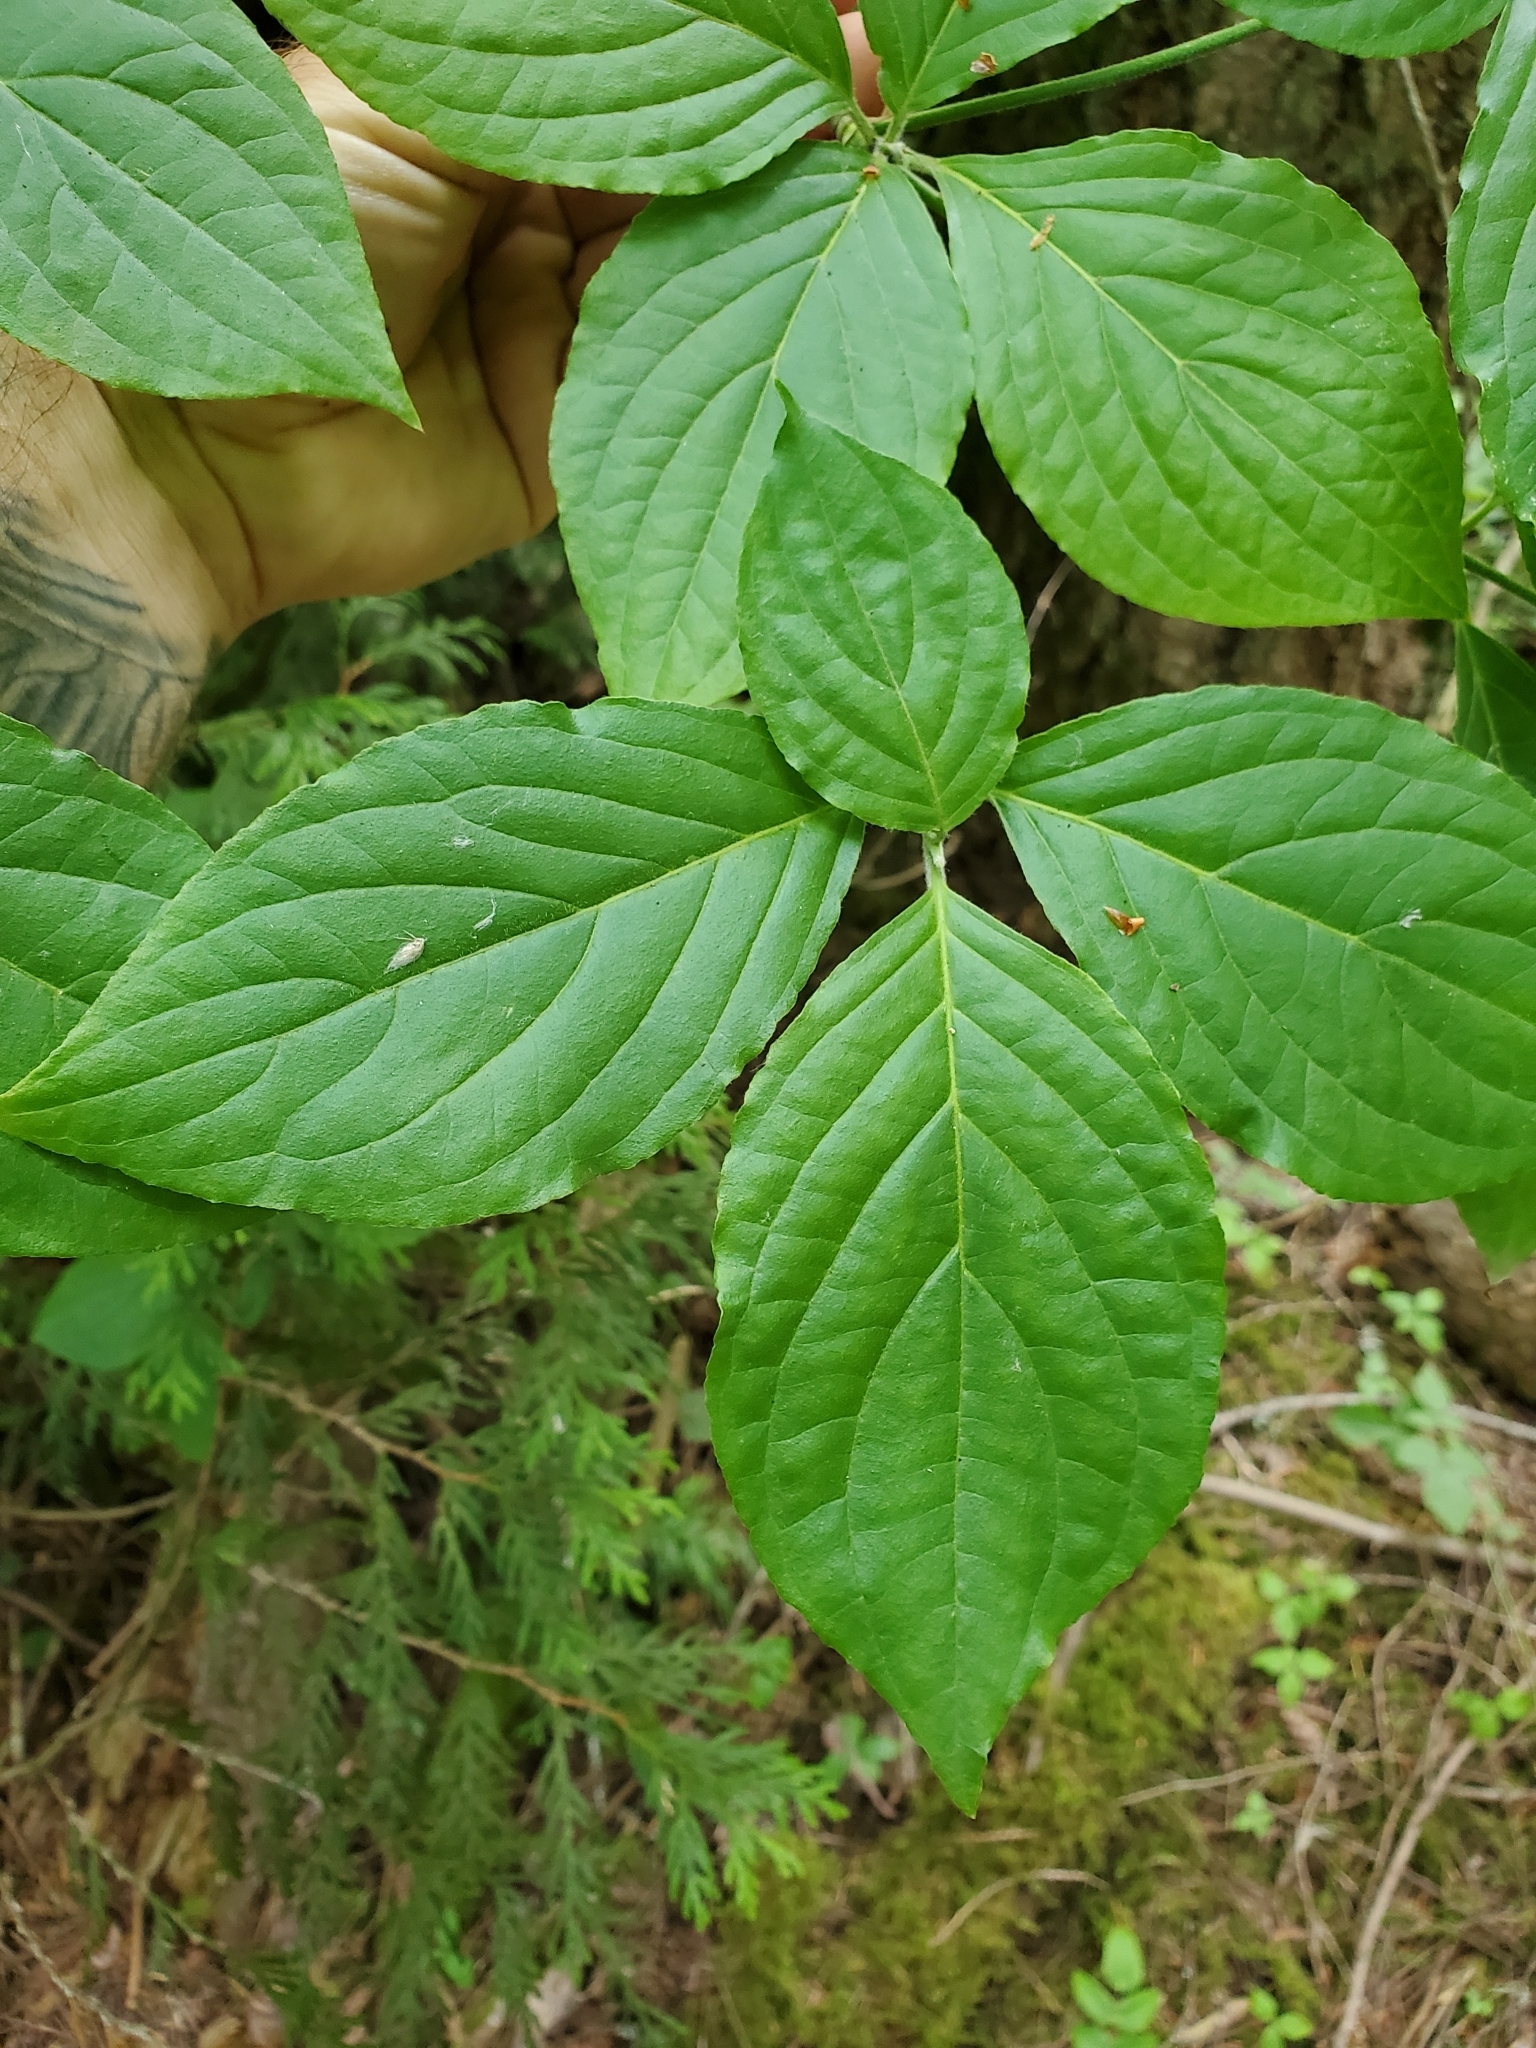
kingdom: Plantae
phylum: Tracheophyta
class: Magnoliopsida
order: Cornales
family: Cornaceae
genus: Cornus
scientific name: Cornus nuttallii
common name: Pacific dogwood
